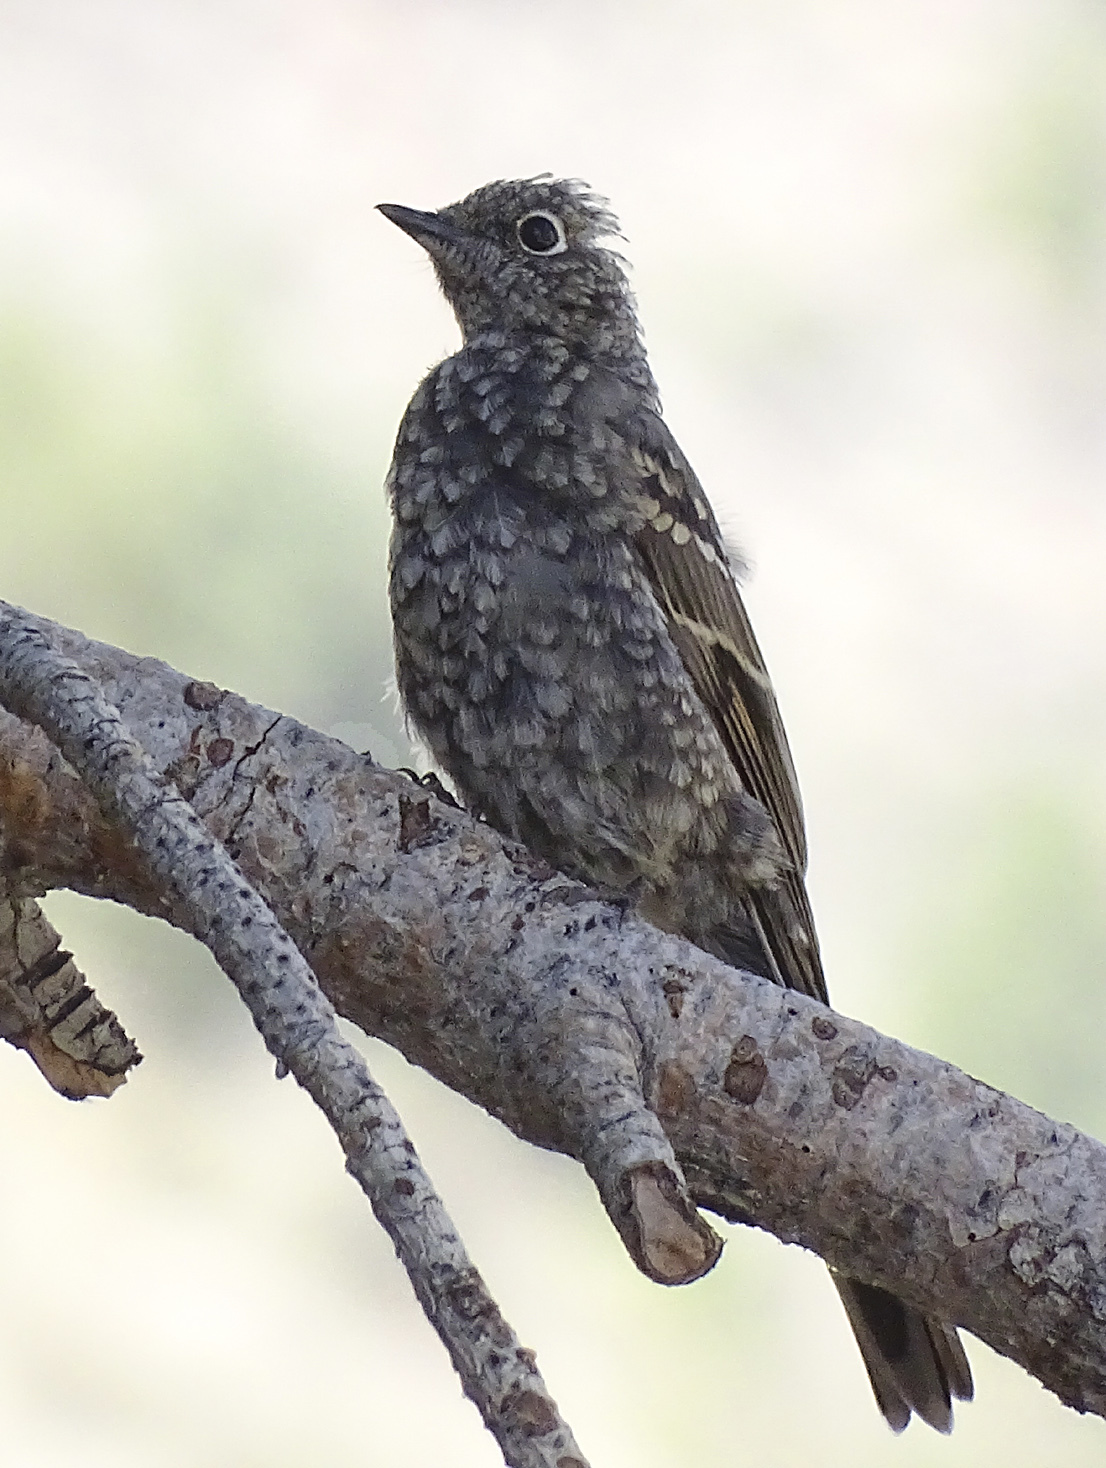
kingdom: Animalia
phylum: Chordata
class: Aves
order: Passeriformes
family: Turdidae
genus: Myadestes
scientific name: Myadestes townsendi
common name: Townsend's solitaire
